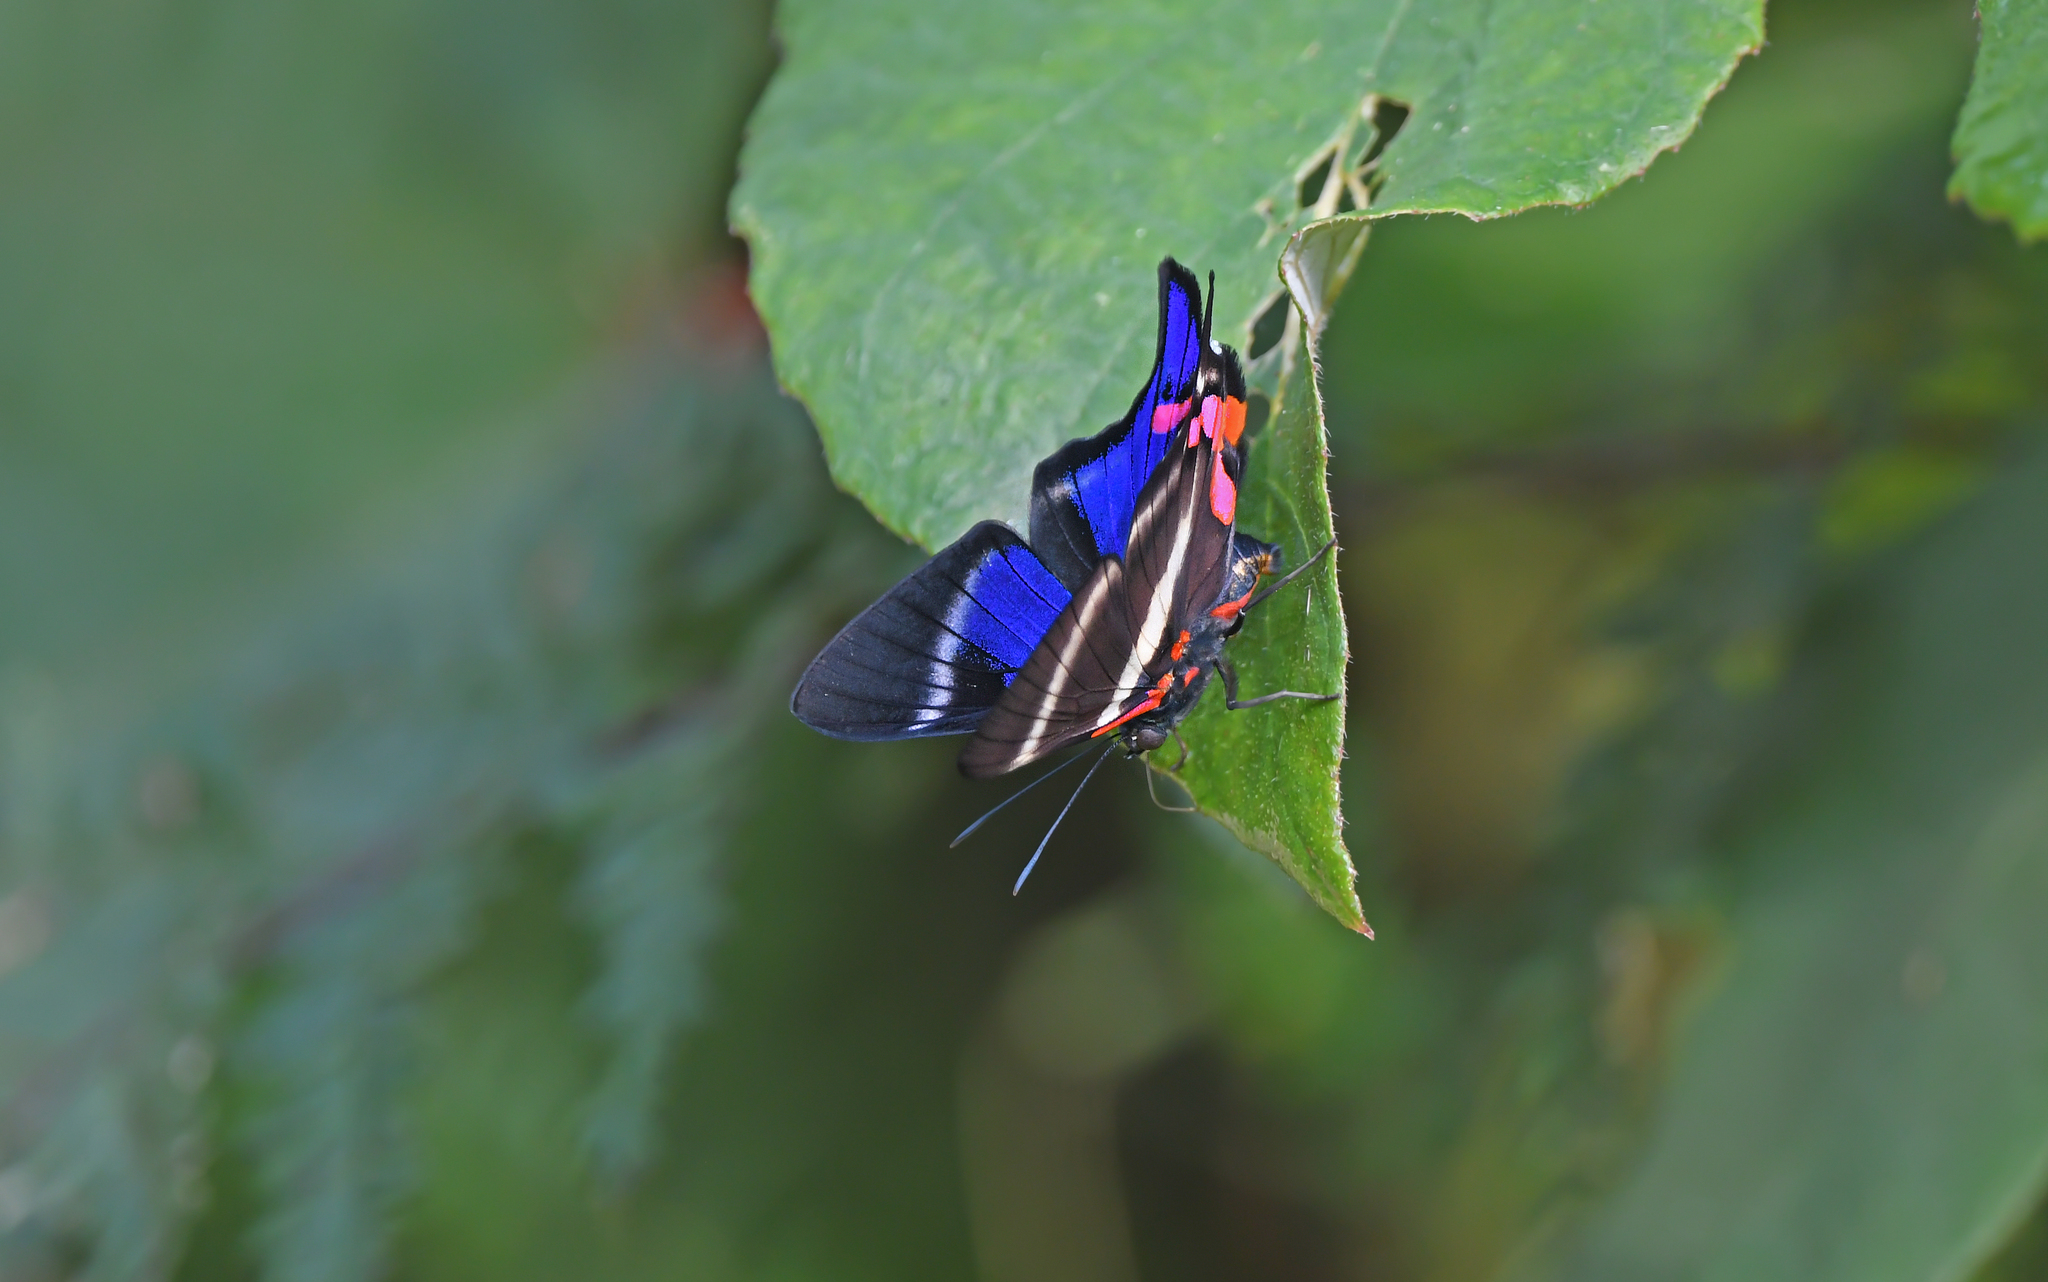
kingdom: Animalia
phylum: Arthropoda
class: Insecta
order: Lepidoptera
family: Riodinidae
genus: Rhetus
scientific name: Rhetus periander
